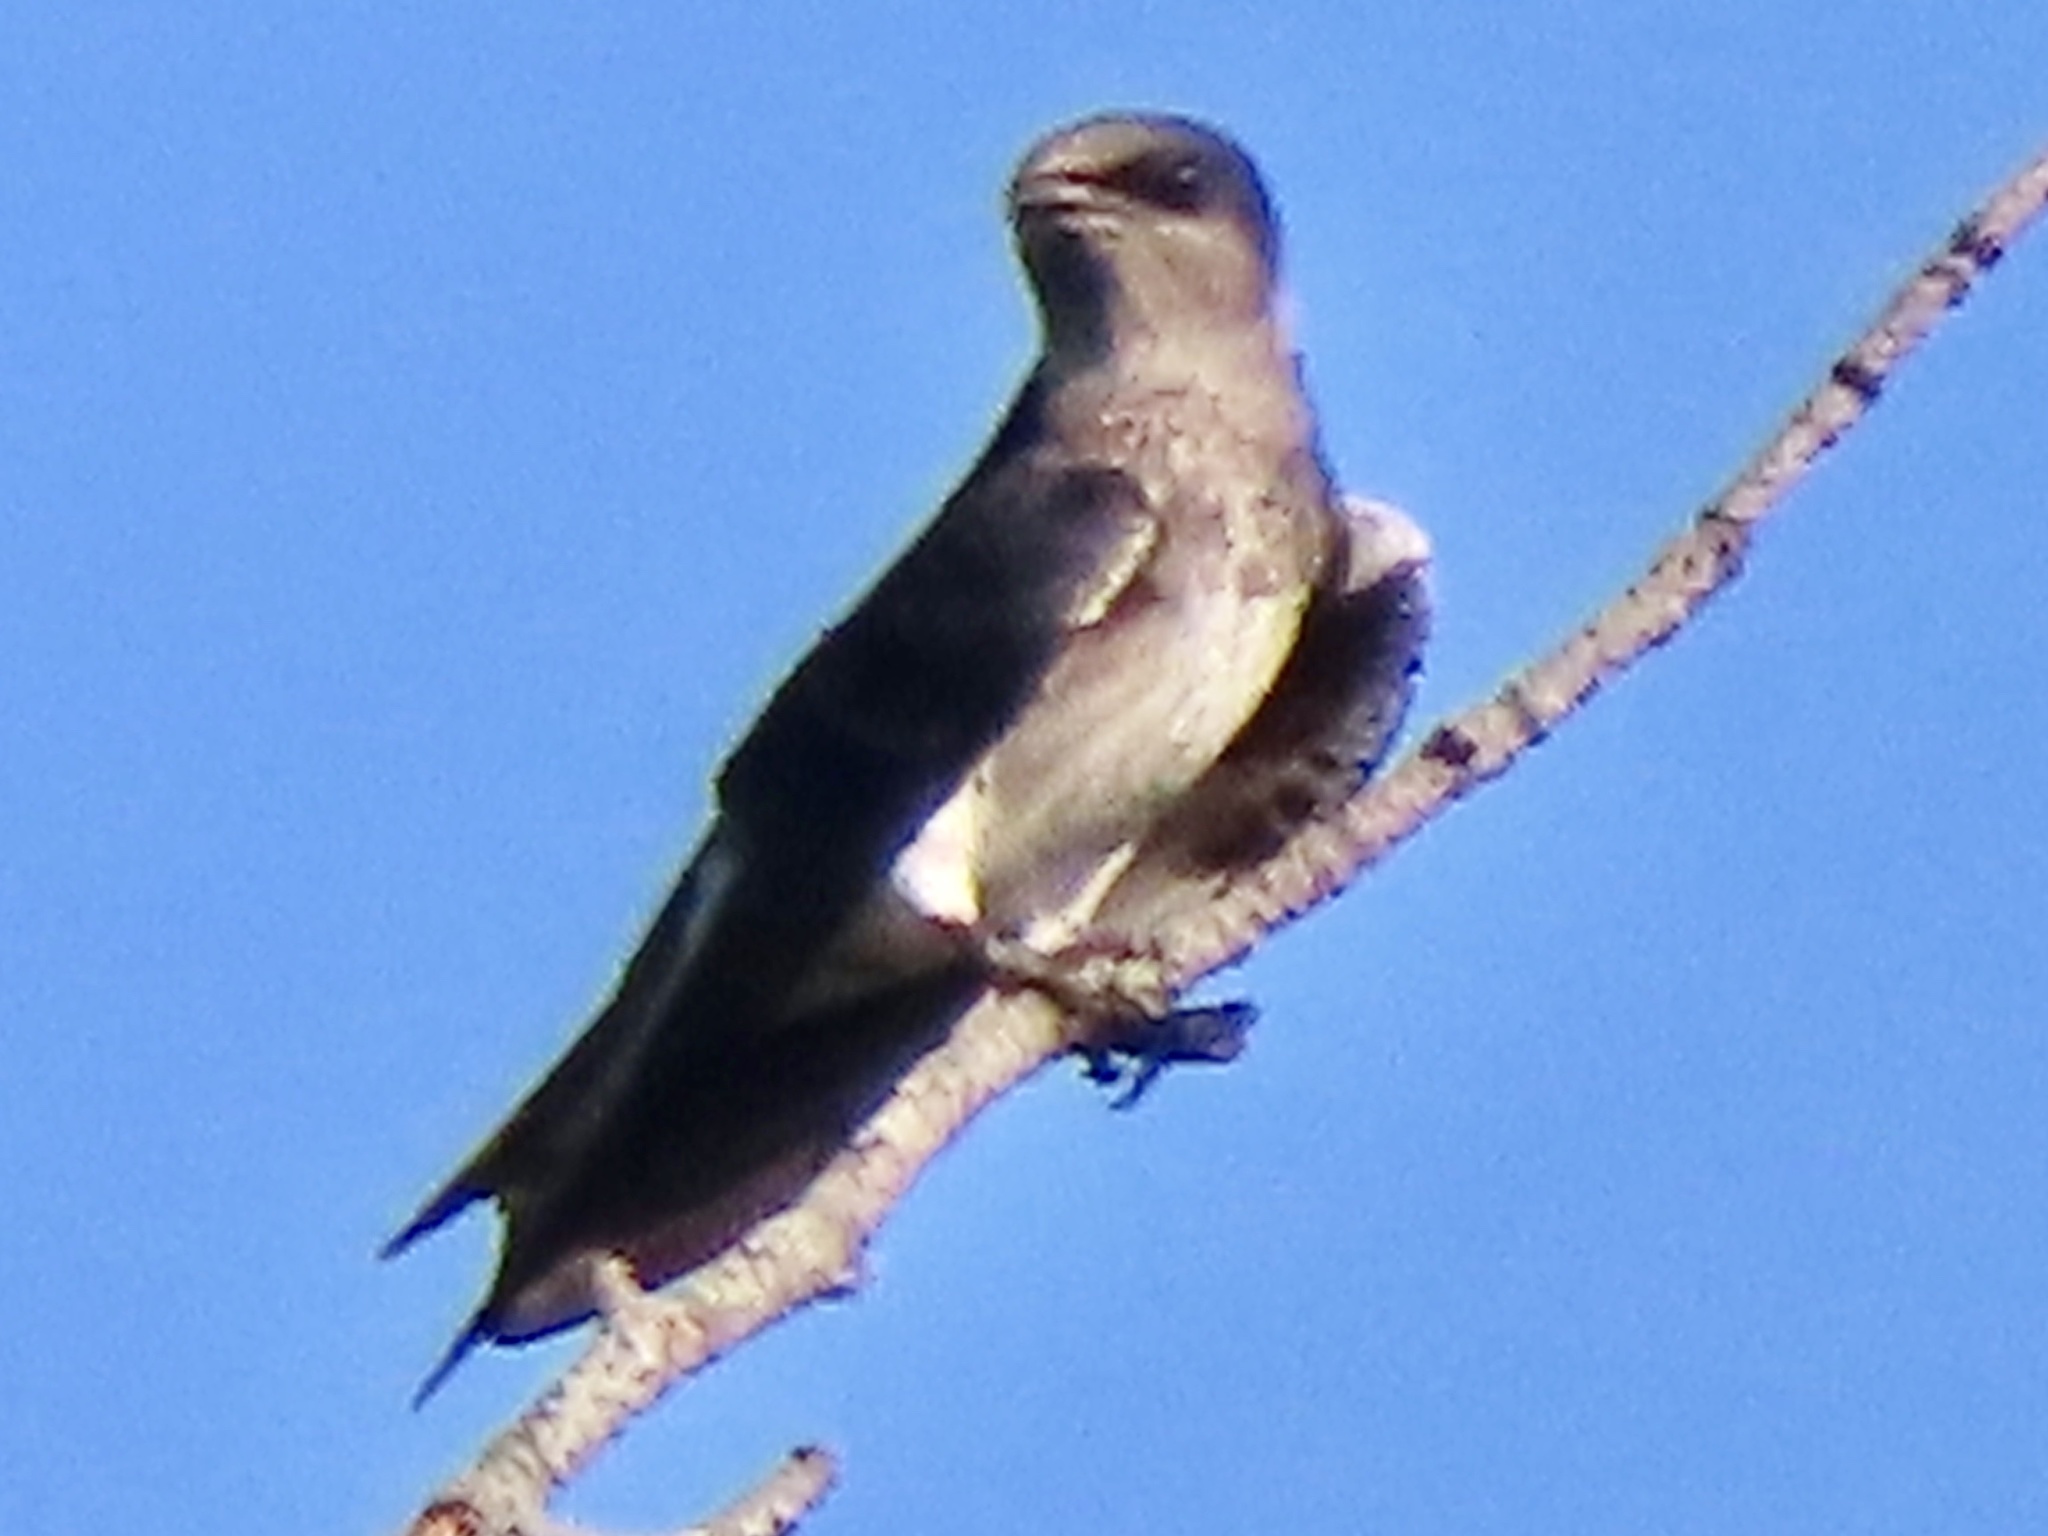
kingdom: Animalia
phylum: Chordata
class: Aves
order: Passeriformes
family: Hirundinidae
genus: Progne
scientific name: Progne subis
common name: Purple martin
